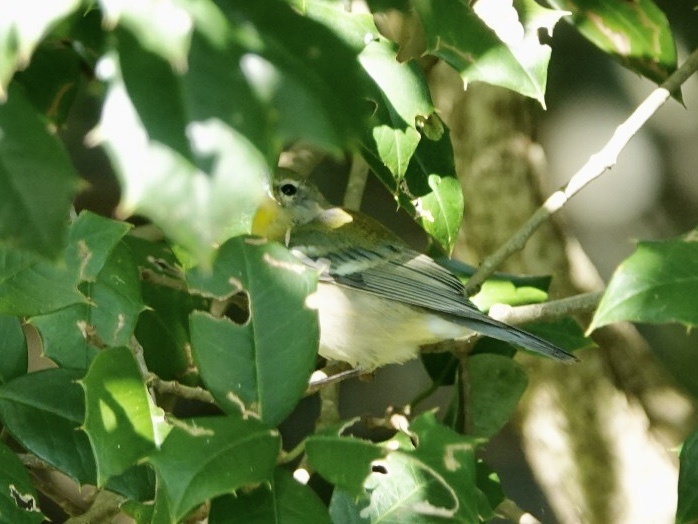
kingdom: Animalia
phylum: Chordata
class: Aves
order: Passeriformes
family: Parulidae
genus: Setophaga
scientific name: Setophaga americana
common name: Northern parula
